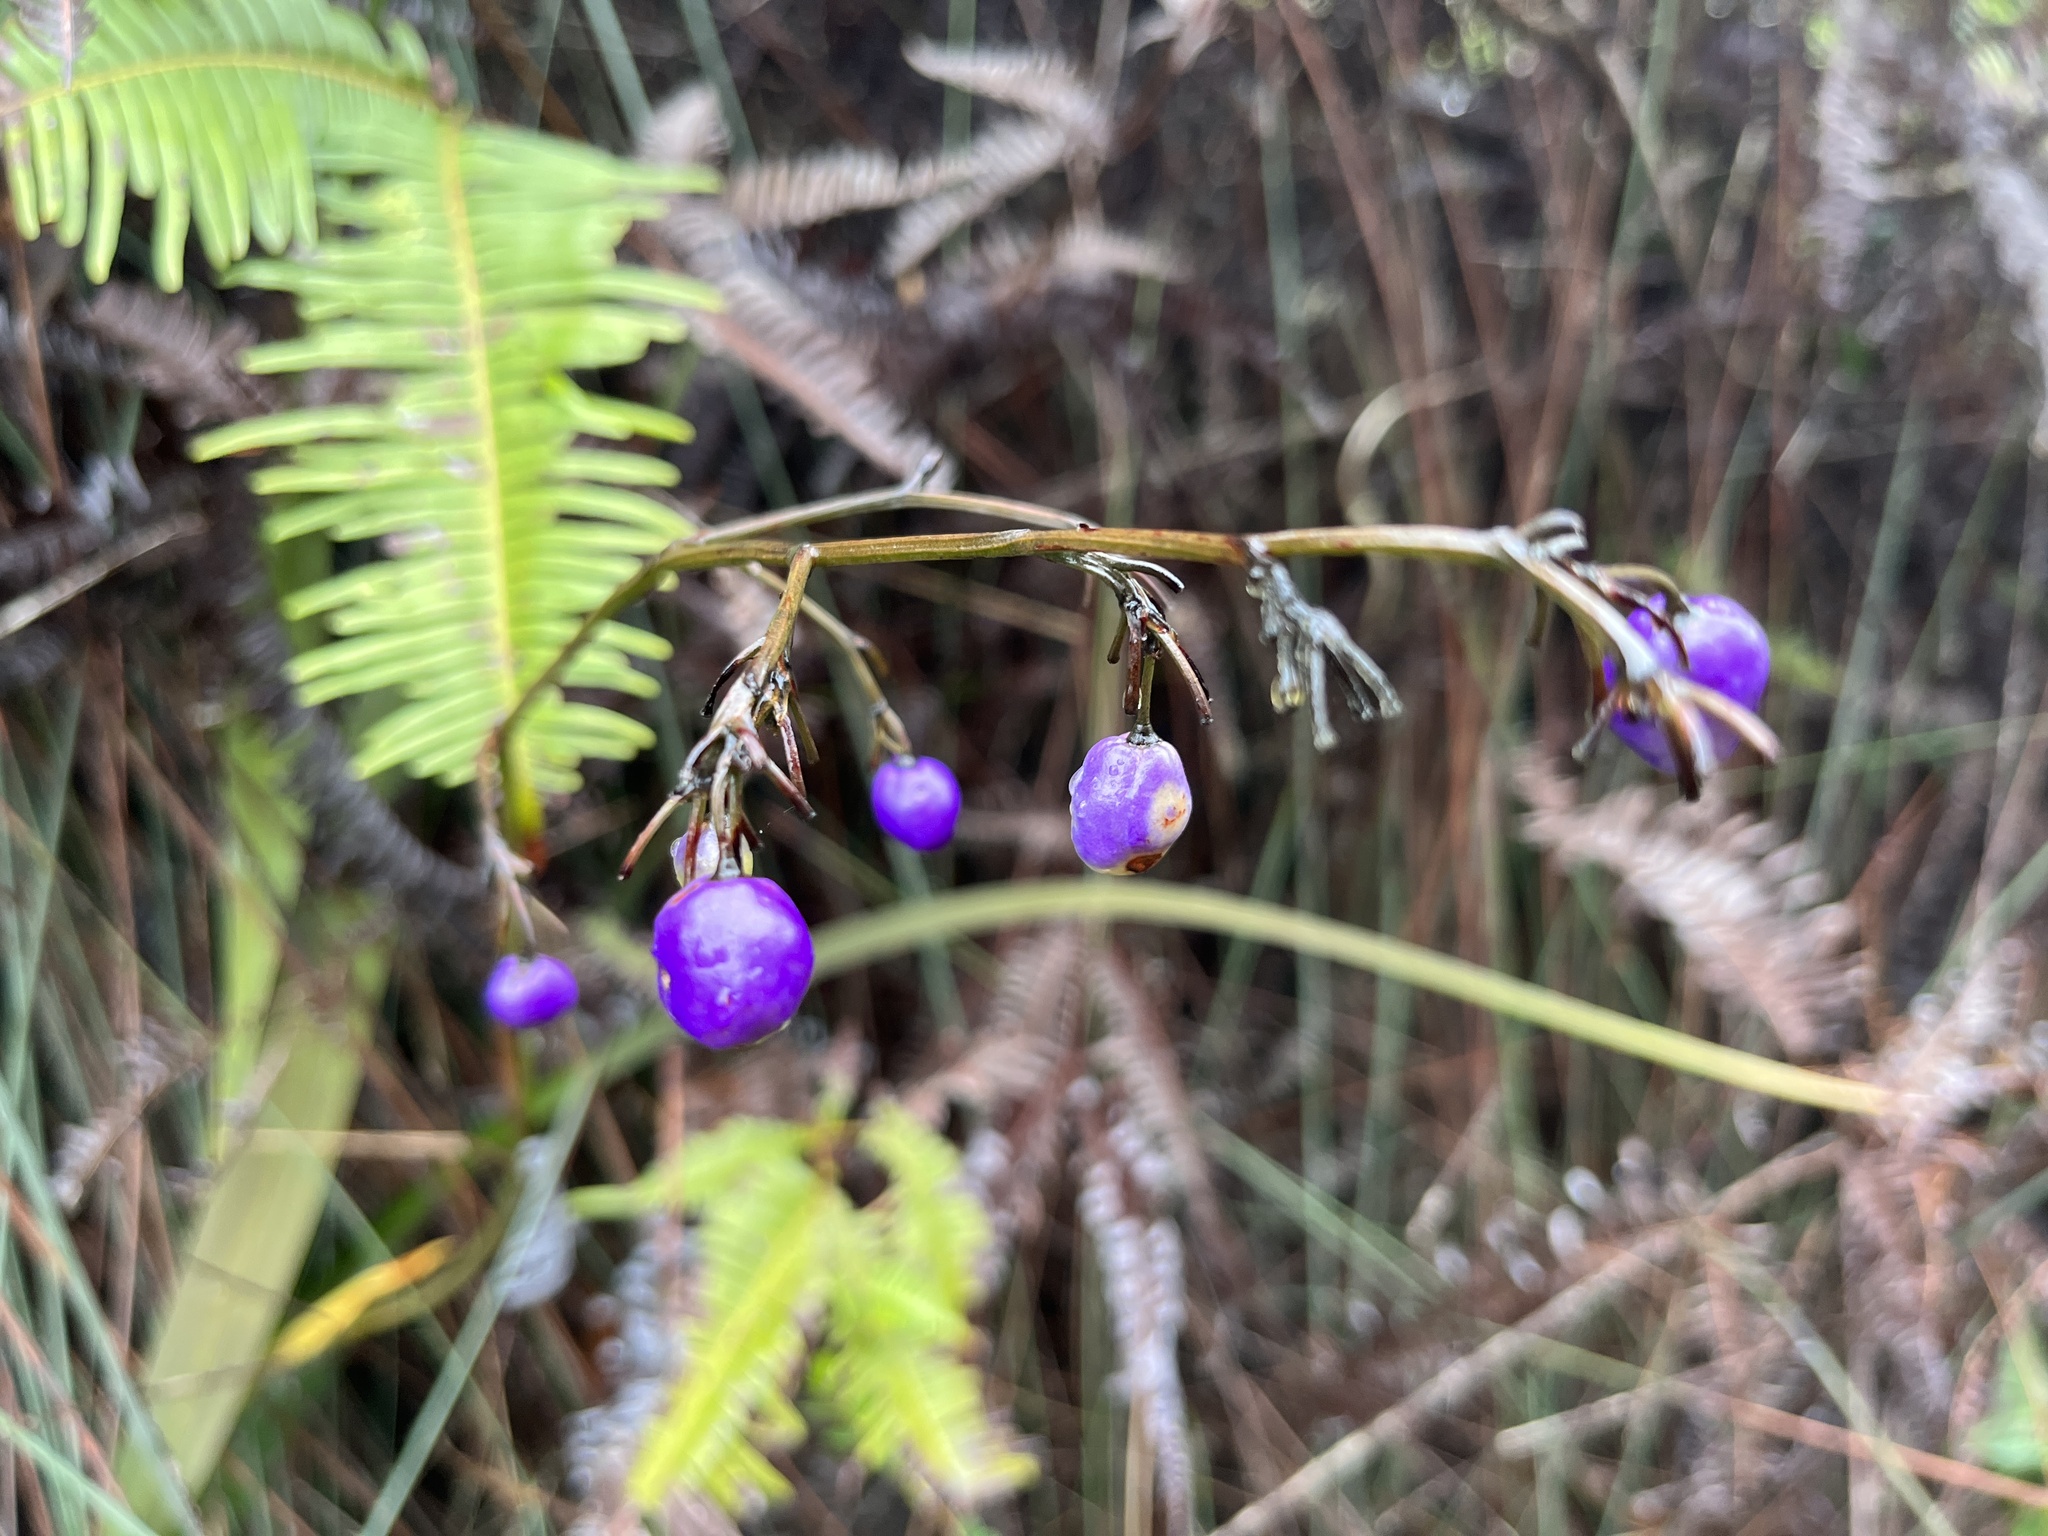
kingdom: Plantae
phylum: Tracheophyta
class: Liliopsida
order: Asparagales
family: Asphodelaceae
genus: Dianella
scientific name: Dianella ensifolia
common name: New zealand lilyplant
